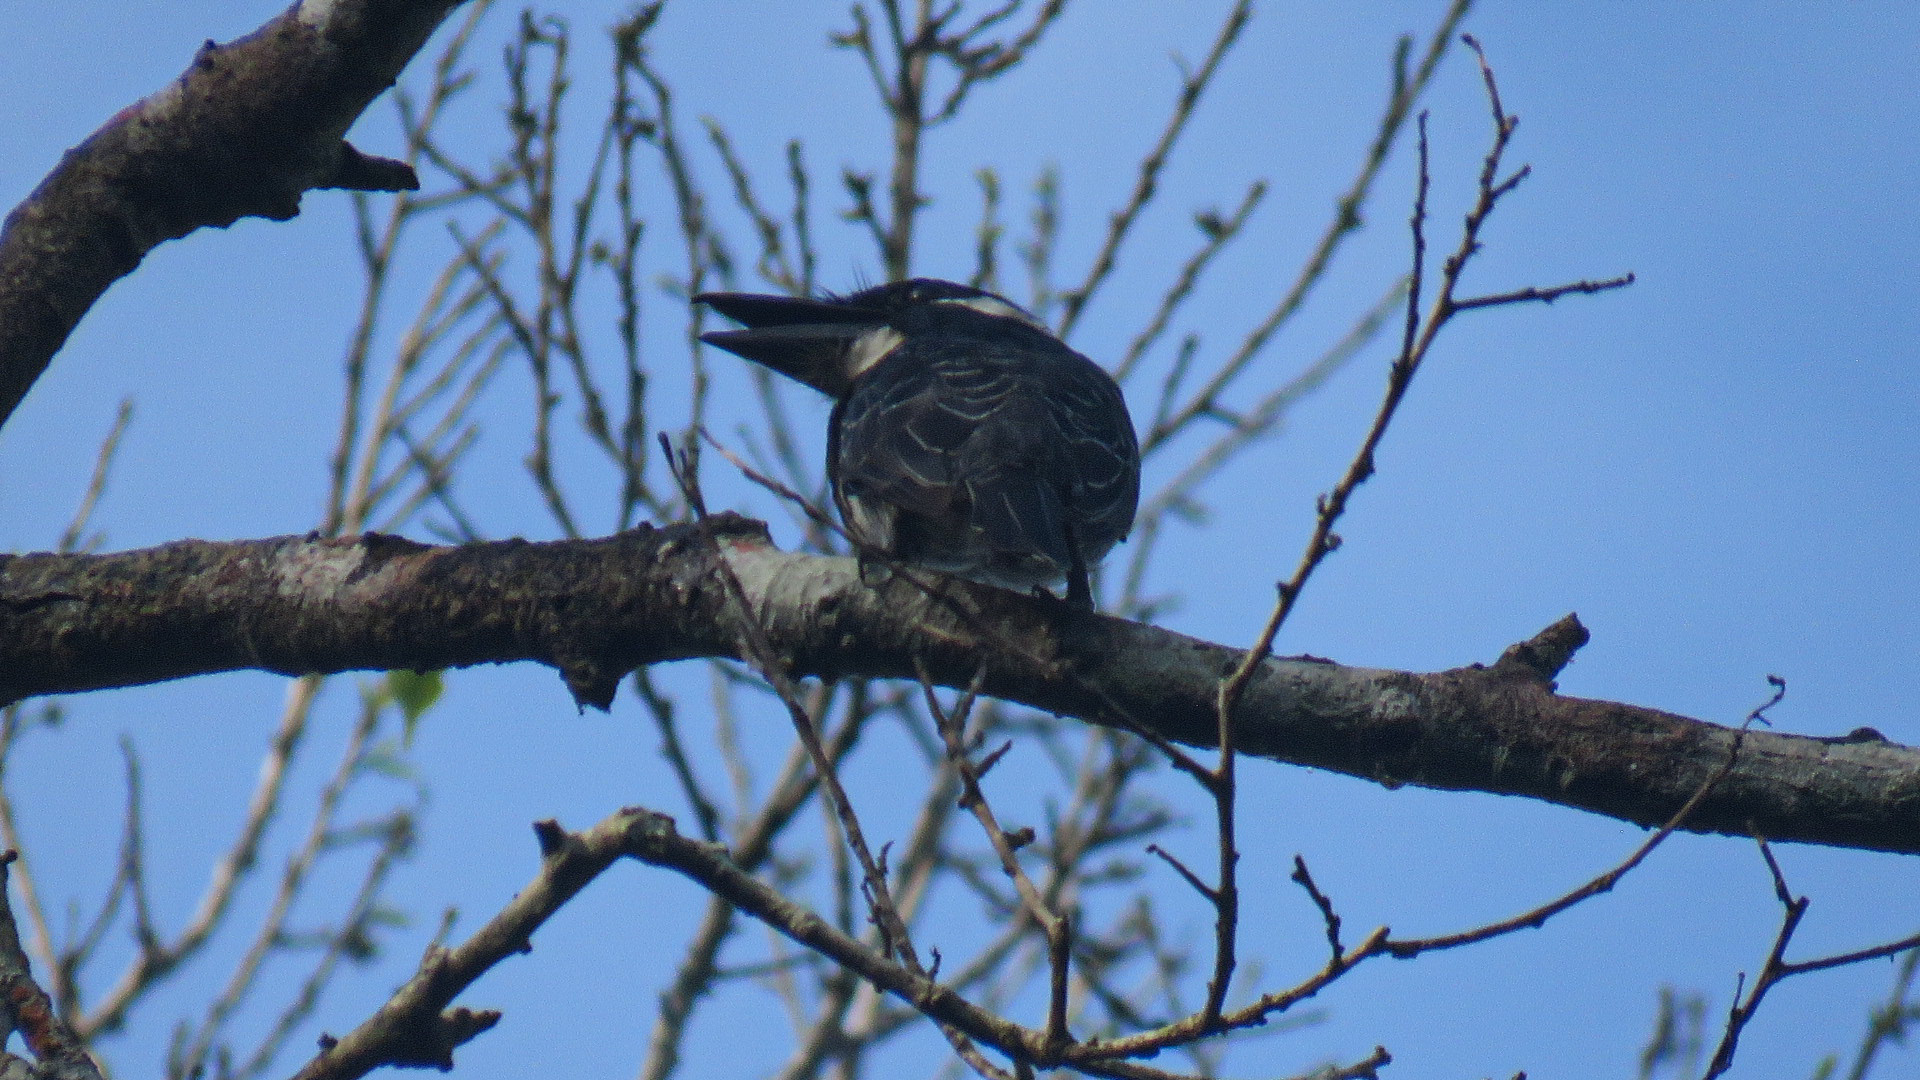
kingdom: Animalia
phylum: Chordata
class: Aves
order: Piciformes
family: Bucconidae
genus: Notharchus
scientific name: Notharchus pectoralis
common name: Black-breasted puffbird
